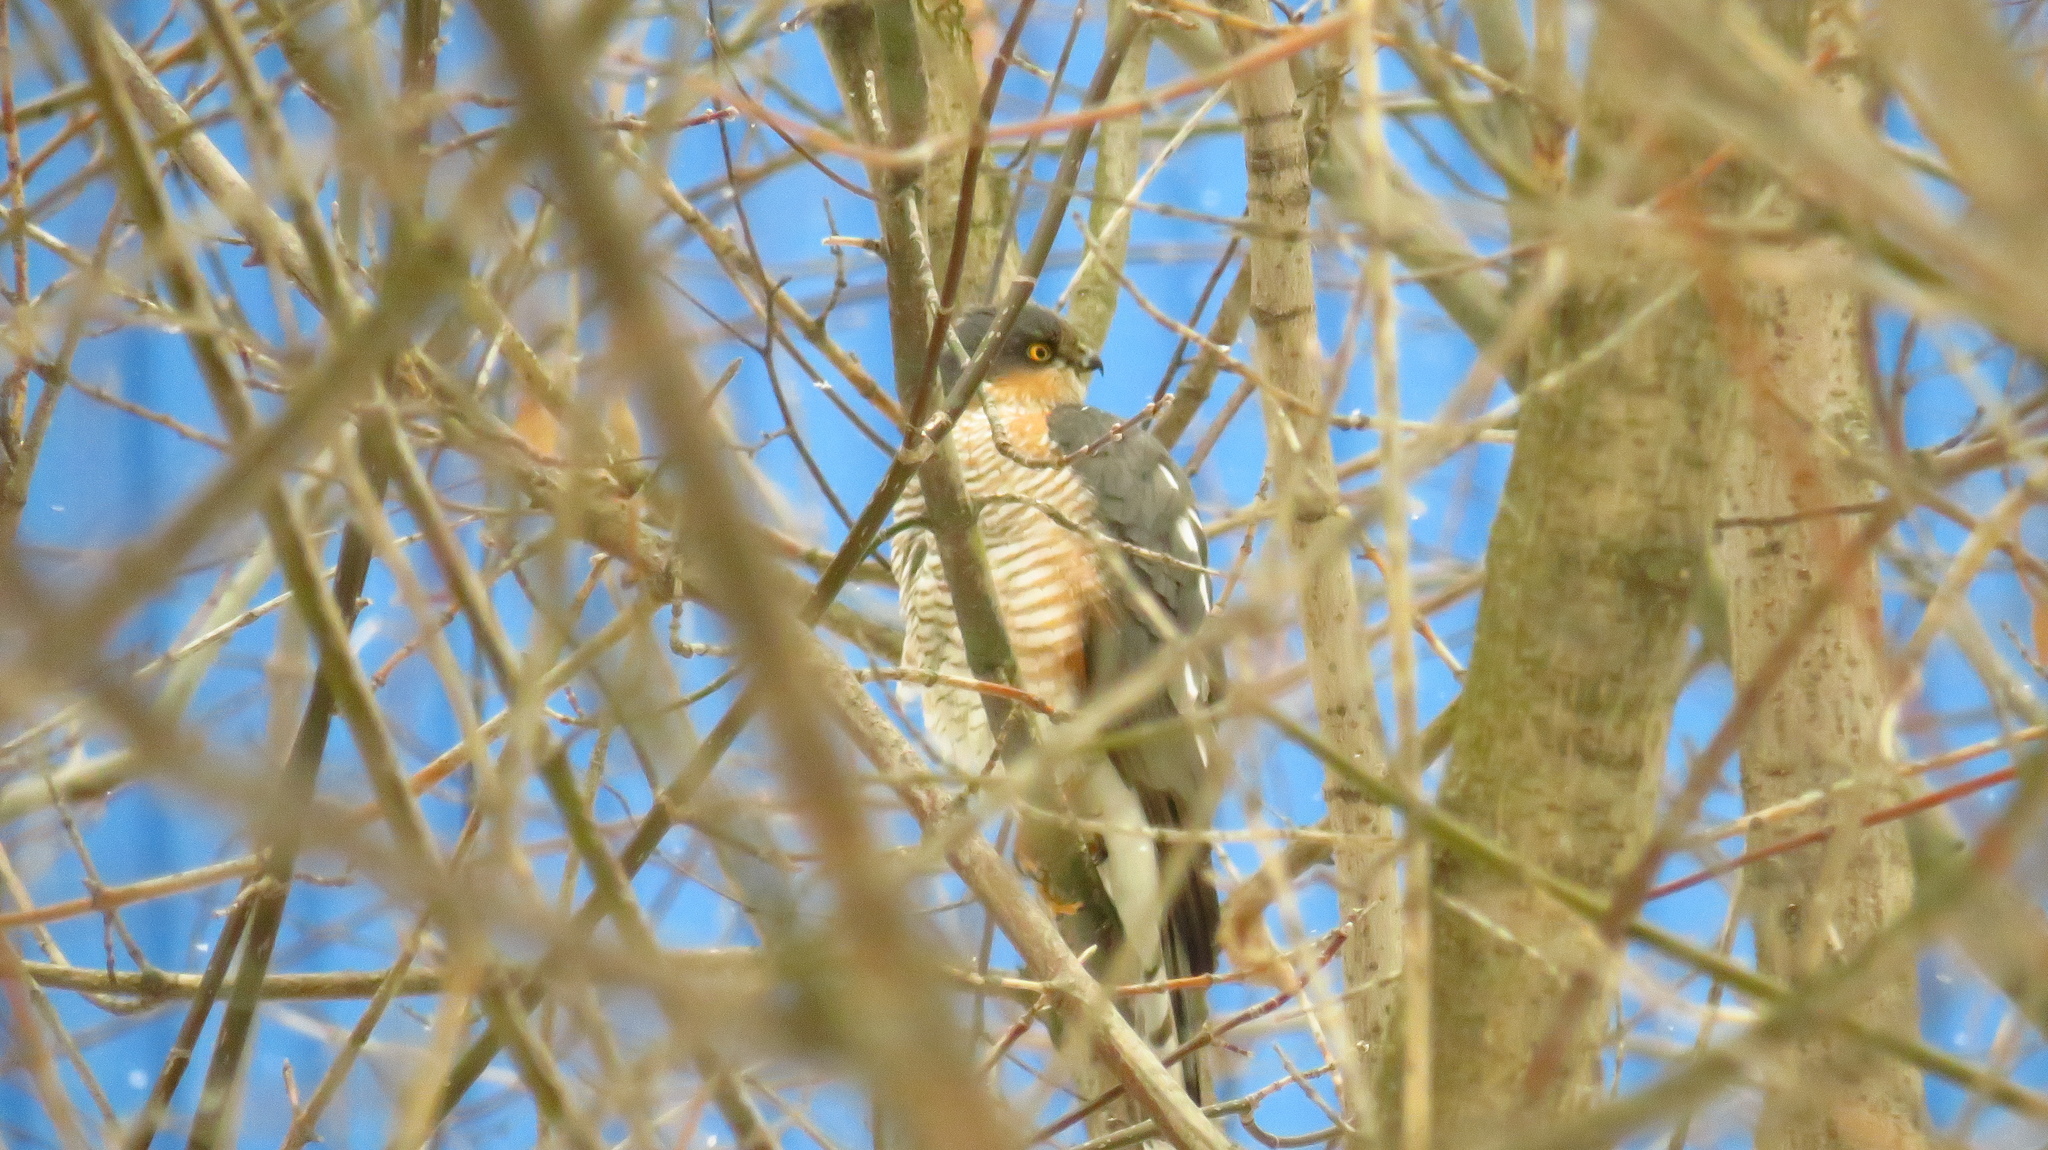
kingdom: Animalia
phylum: Chordata
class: Aves
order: Accipitriformes
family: Accipitridae
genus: Accipiter
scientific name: Accipiter nisus
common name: Eurasian sparrowhawk
